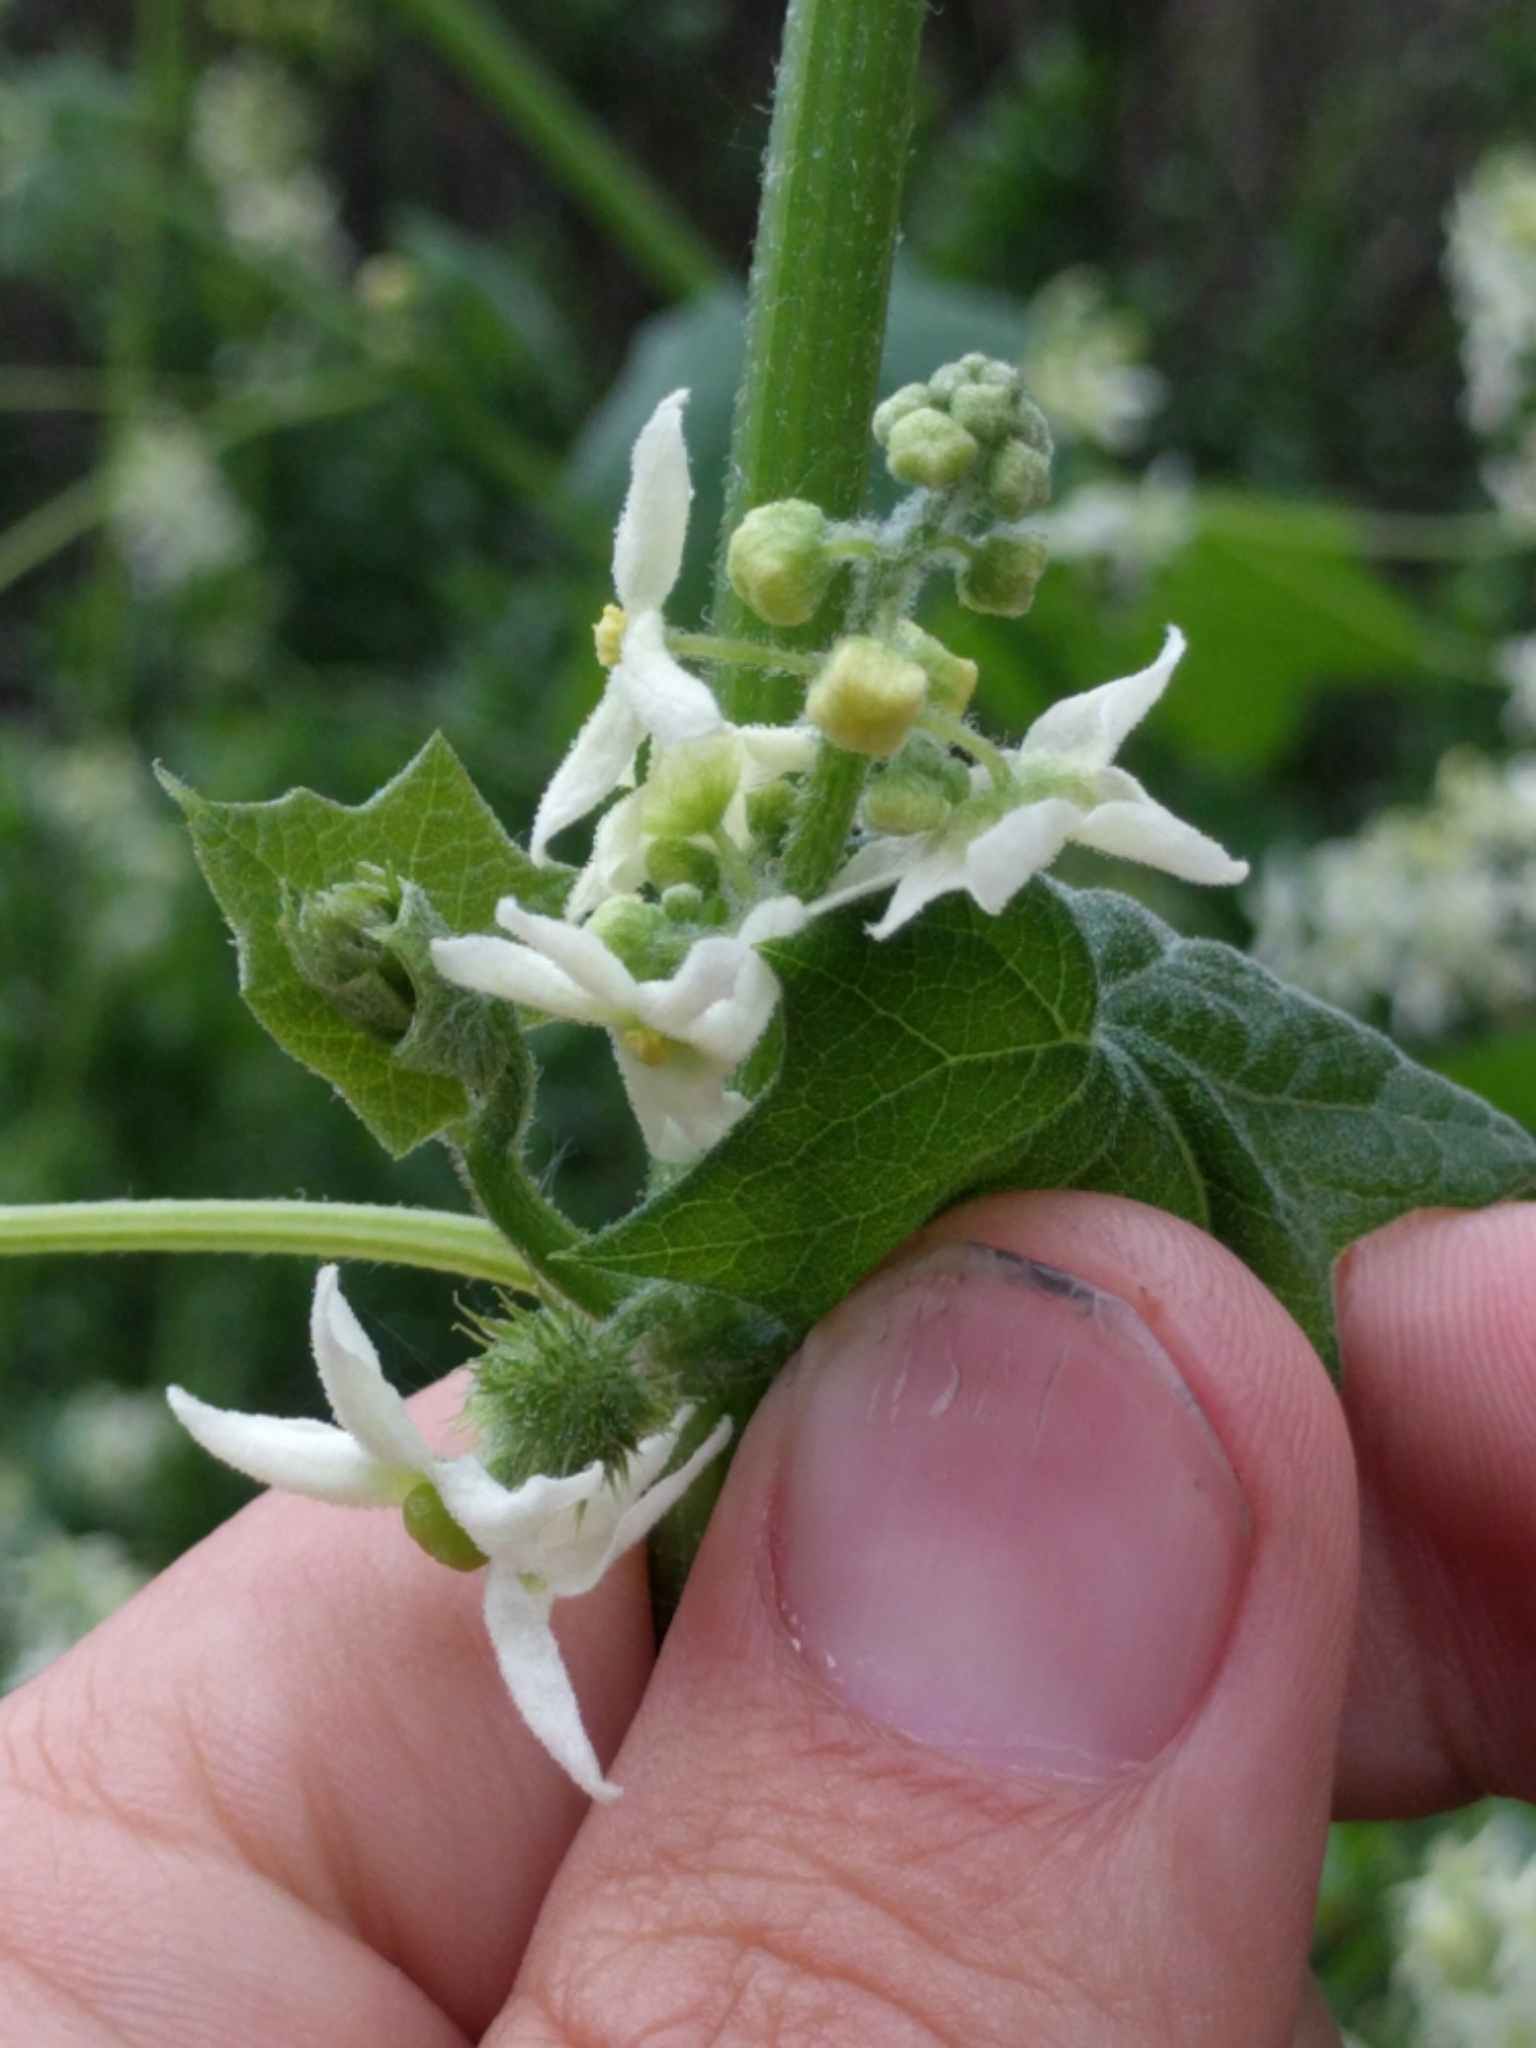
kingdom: Plantae
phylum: Tracheophyta
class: Magnoliopsida
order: Cucurbitales
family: Cucurbitaceae
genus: Marah
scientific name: Marah fabacea
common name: California manroot
